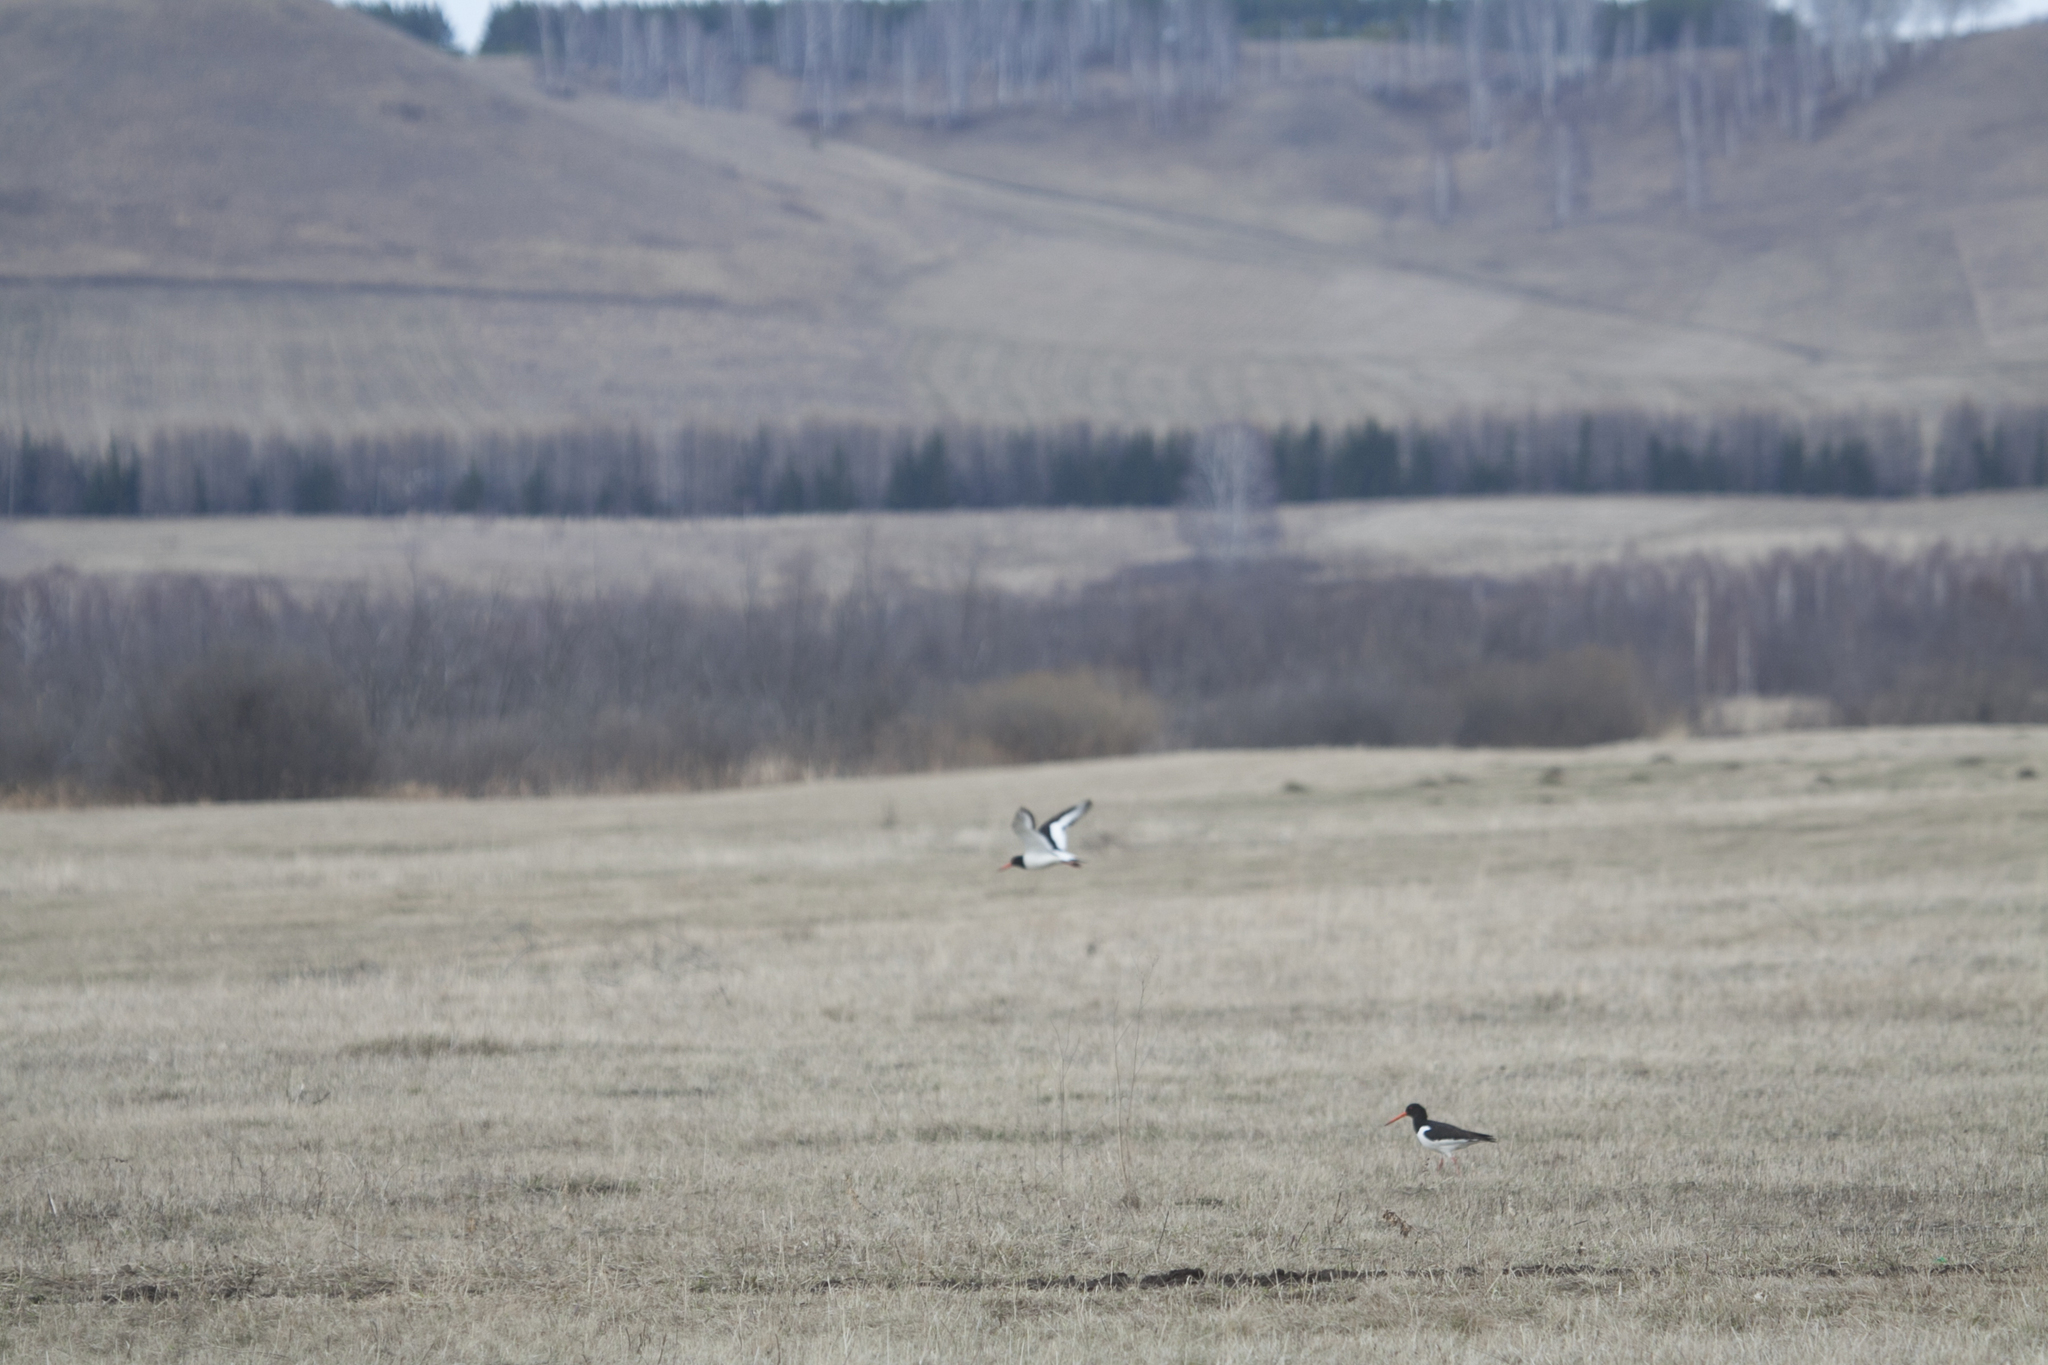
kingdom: Animalia
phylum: Chordata
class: Aves
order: Charadriiformes
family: Haematopodidae
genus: Haematopus
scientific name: Haematopus ostralegus
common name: Eurasian oystercatcher
